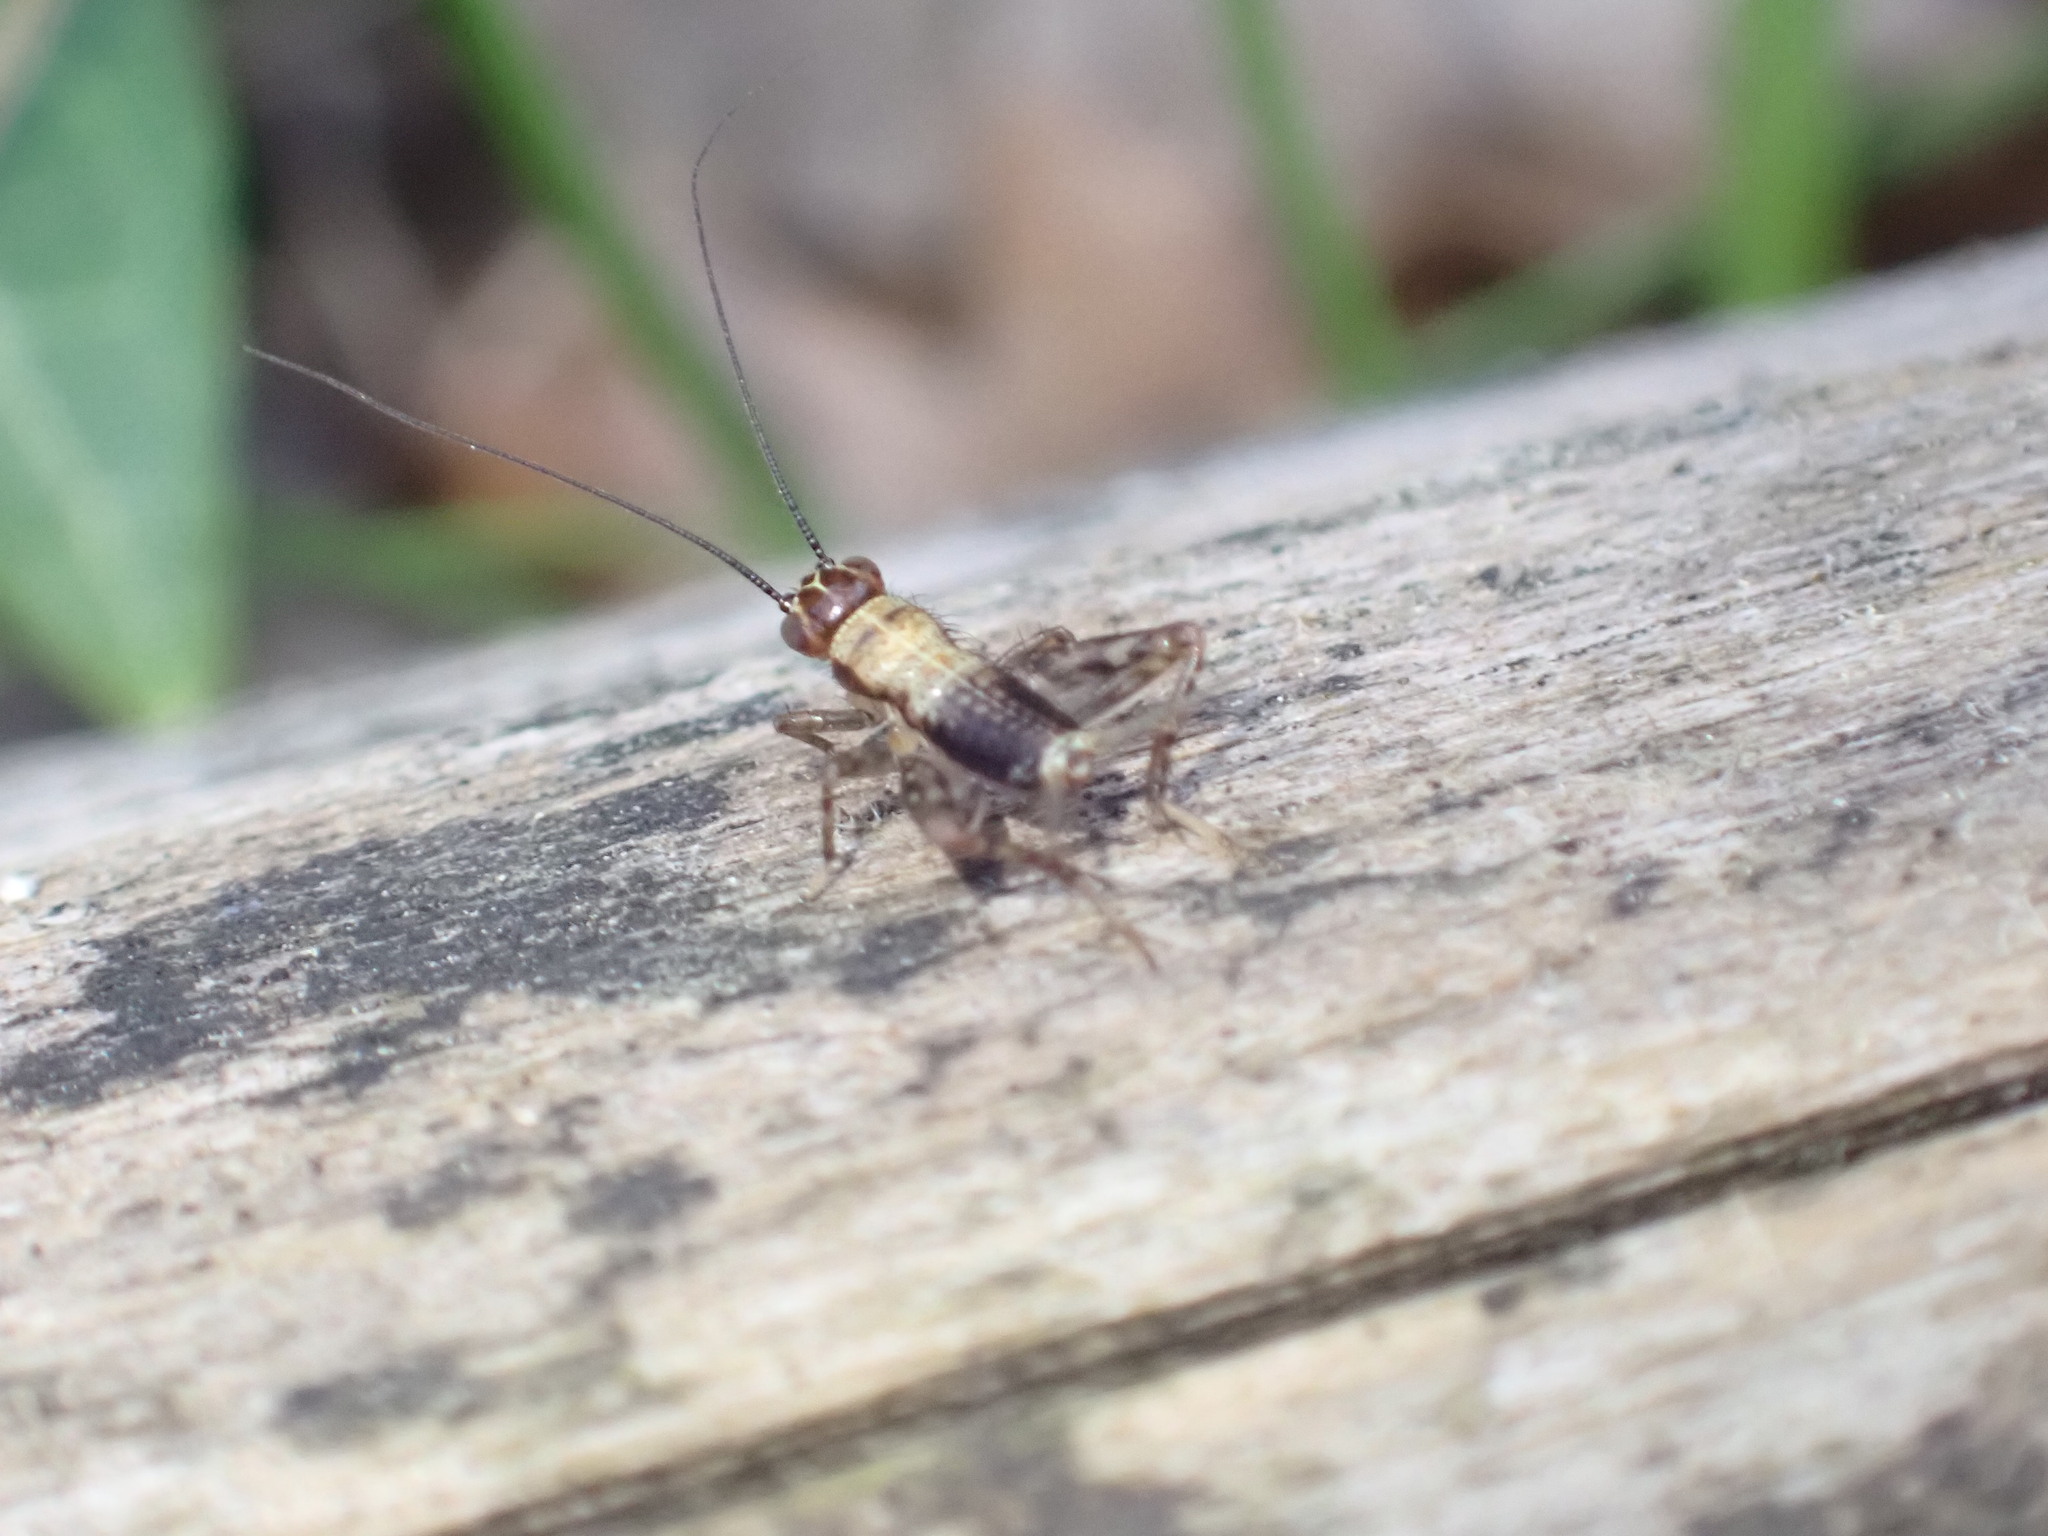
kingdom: Animalia
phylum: Arthropoda
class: Insecta
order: Orthoptera
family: Trigonidiidae
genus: Nemobius
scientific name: Nemobius sylvestris
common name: Wood-cricket
